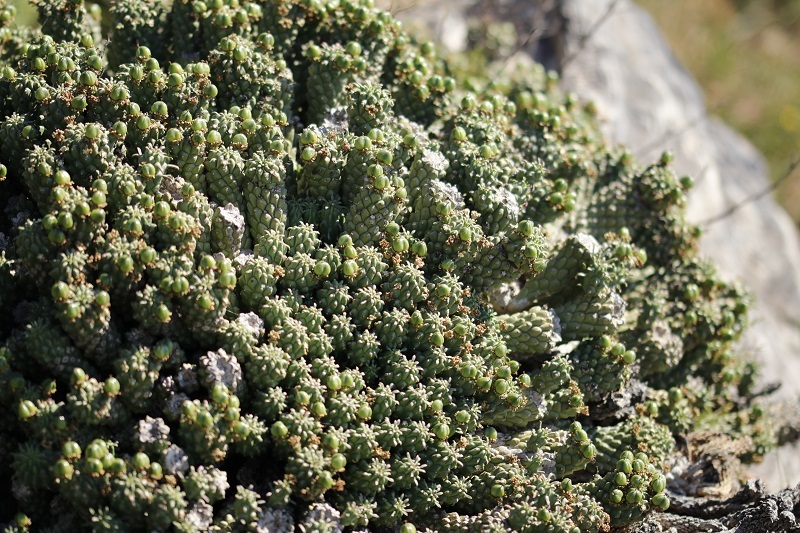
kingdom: Plantae
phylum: Tracheophyta
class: Magnoliopsida
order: Malpighiales
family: Euphorbiaceae
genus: Euphorbia
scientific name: Euphorbia caput-medusae
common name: Medusa's-head
